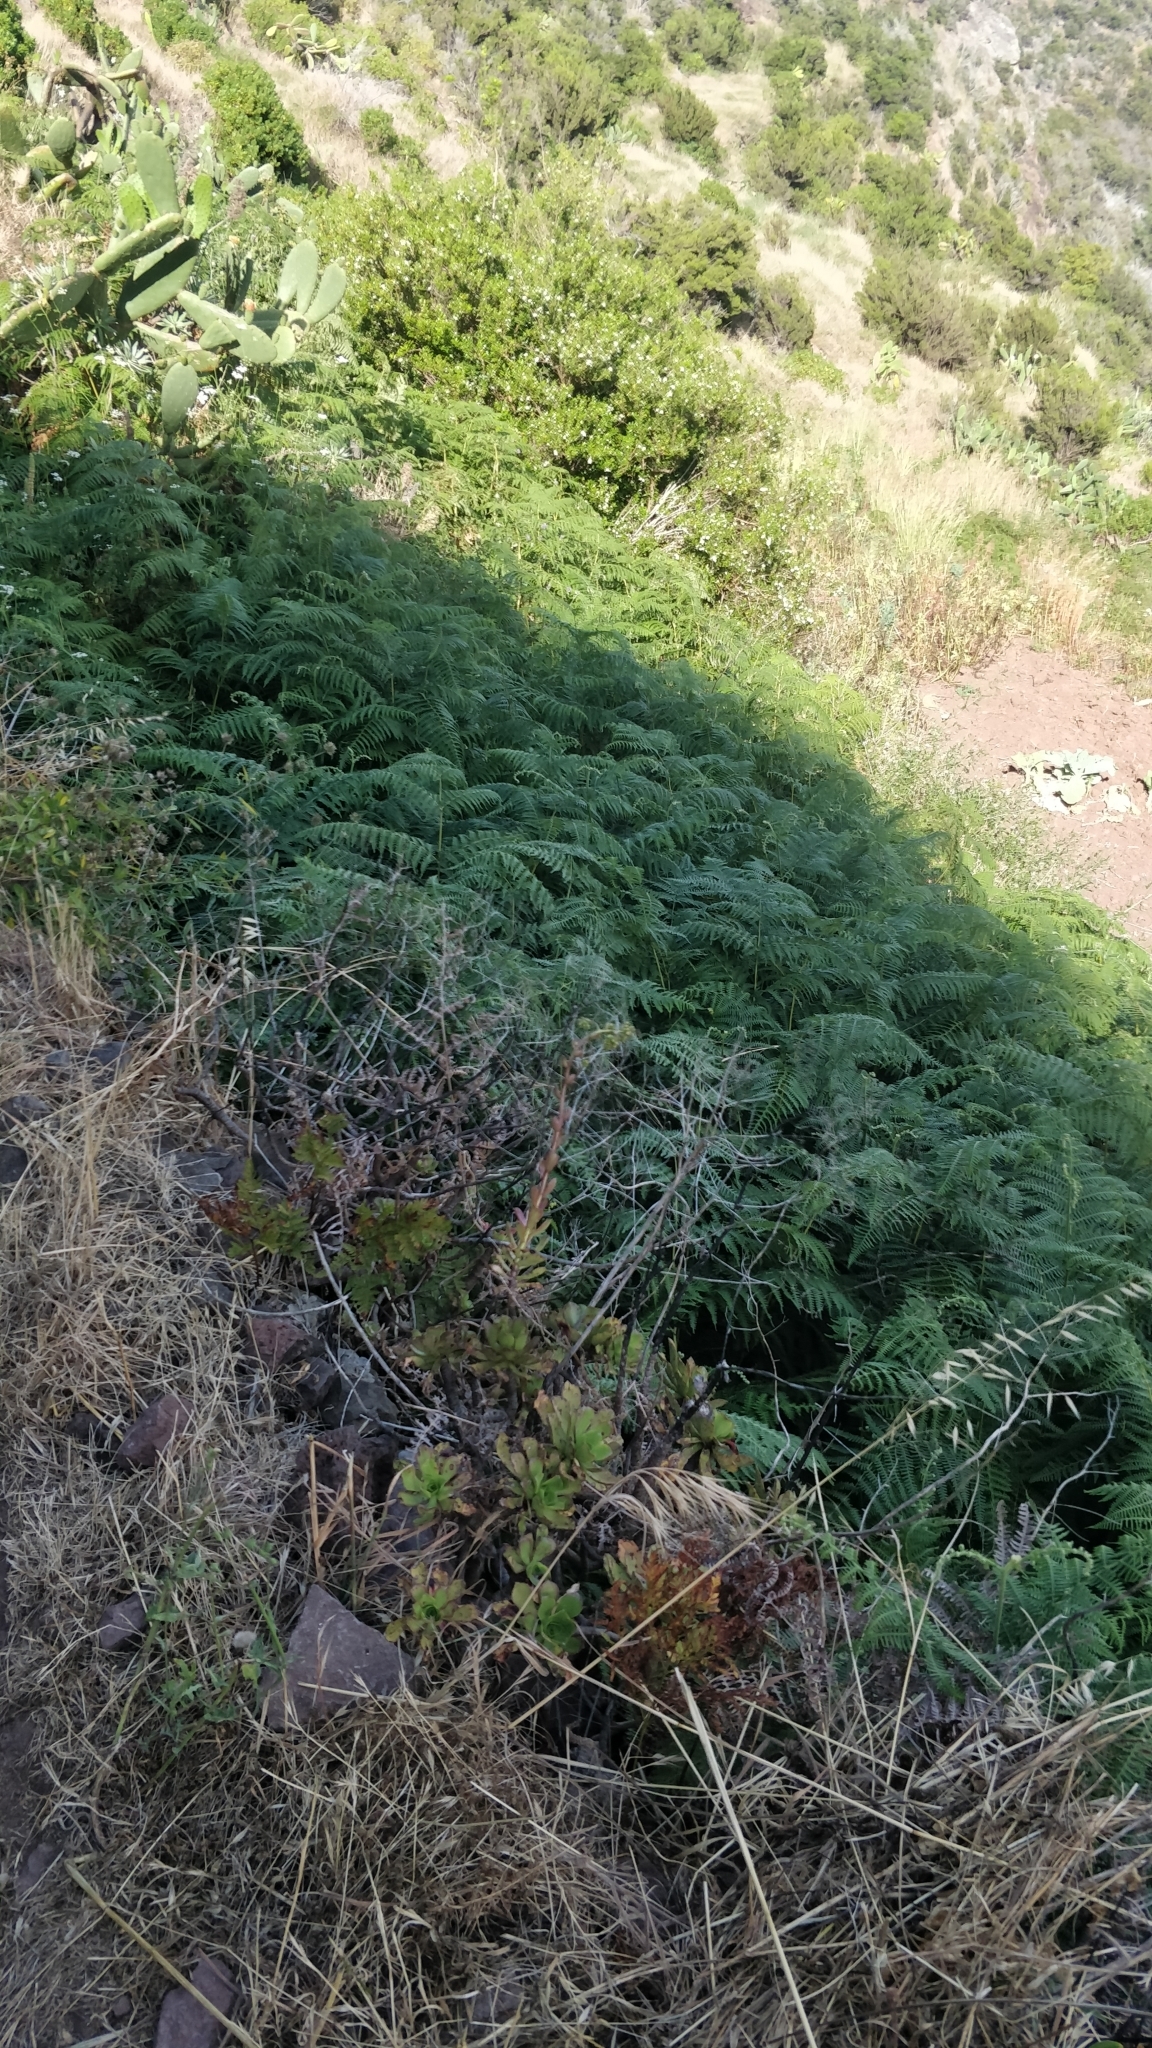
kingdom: Plantae
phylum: Tracheophyta
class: Polypodiopsida
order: Polypodiales
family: Dennstaedtiaceae
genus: Pteridium
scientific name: Pteridium aquilinum
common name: Bracken
